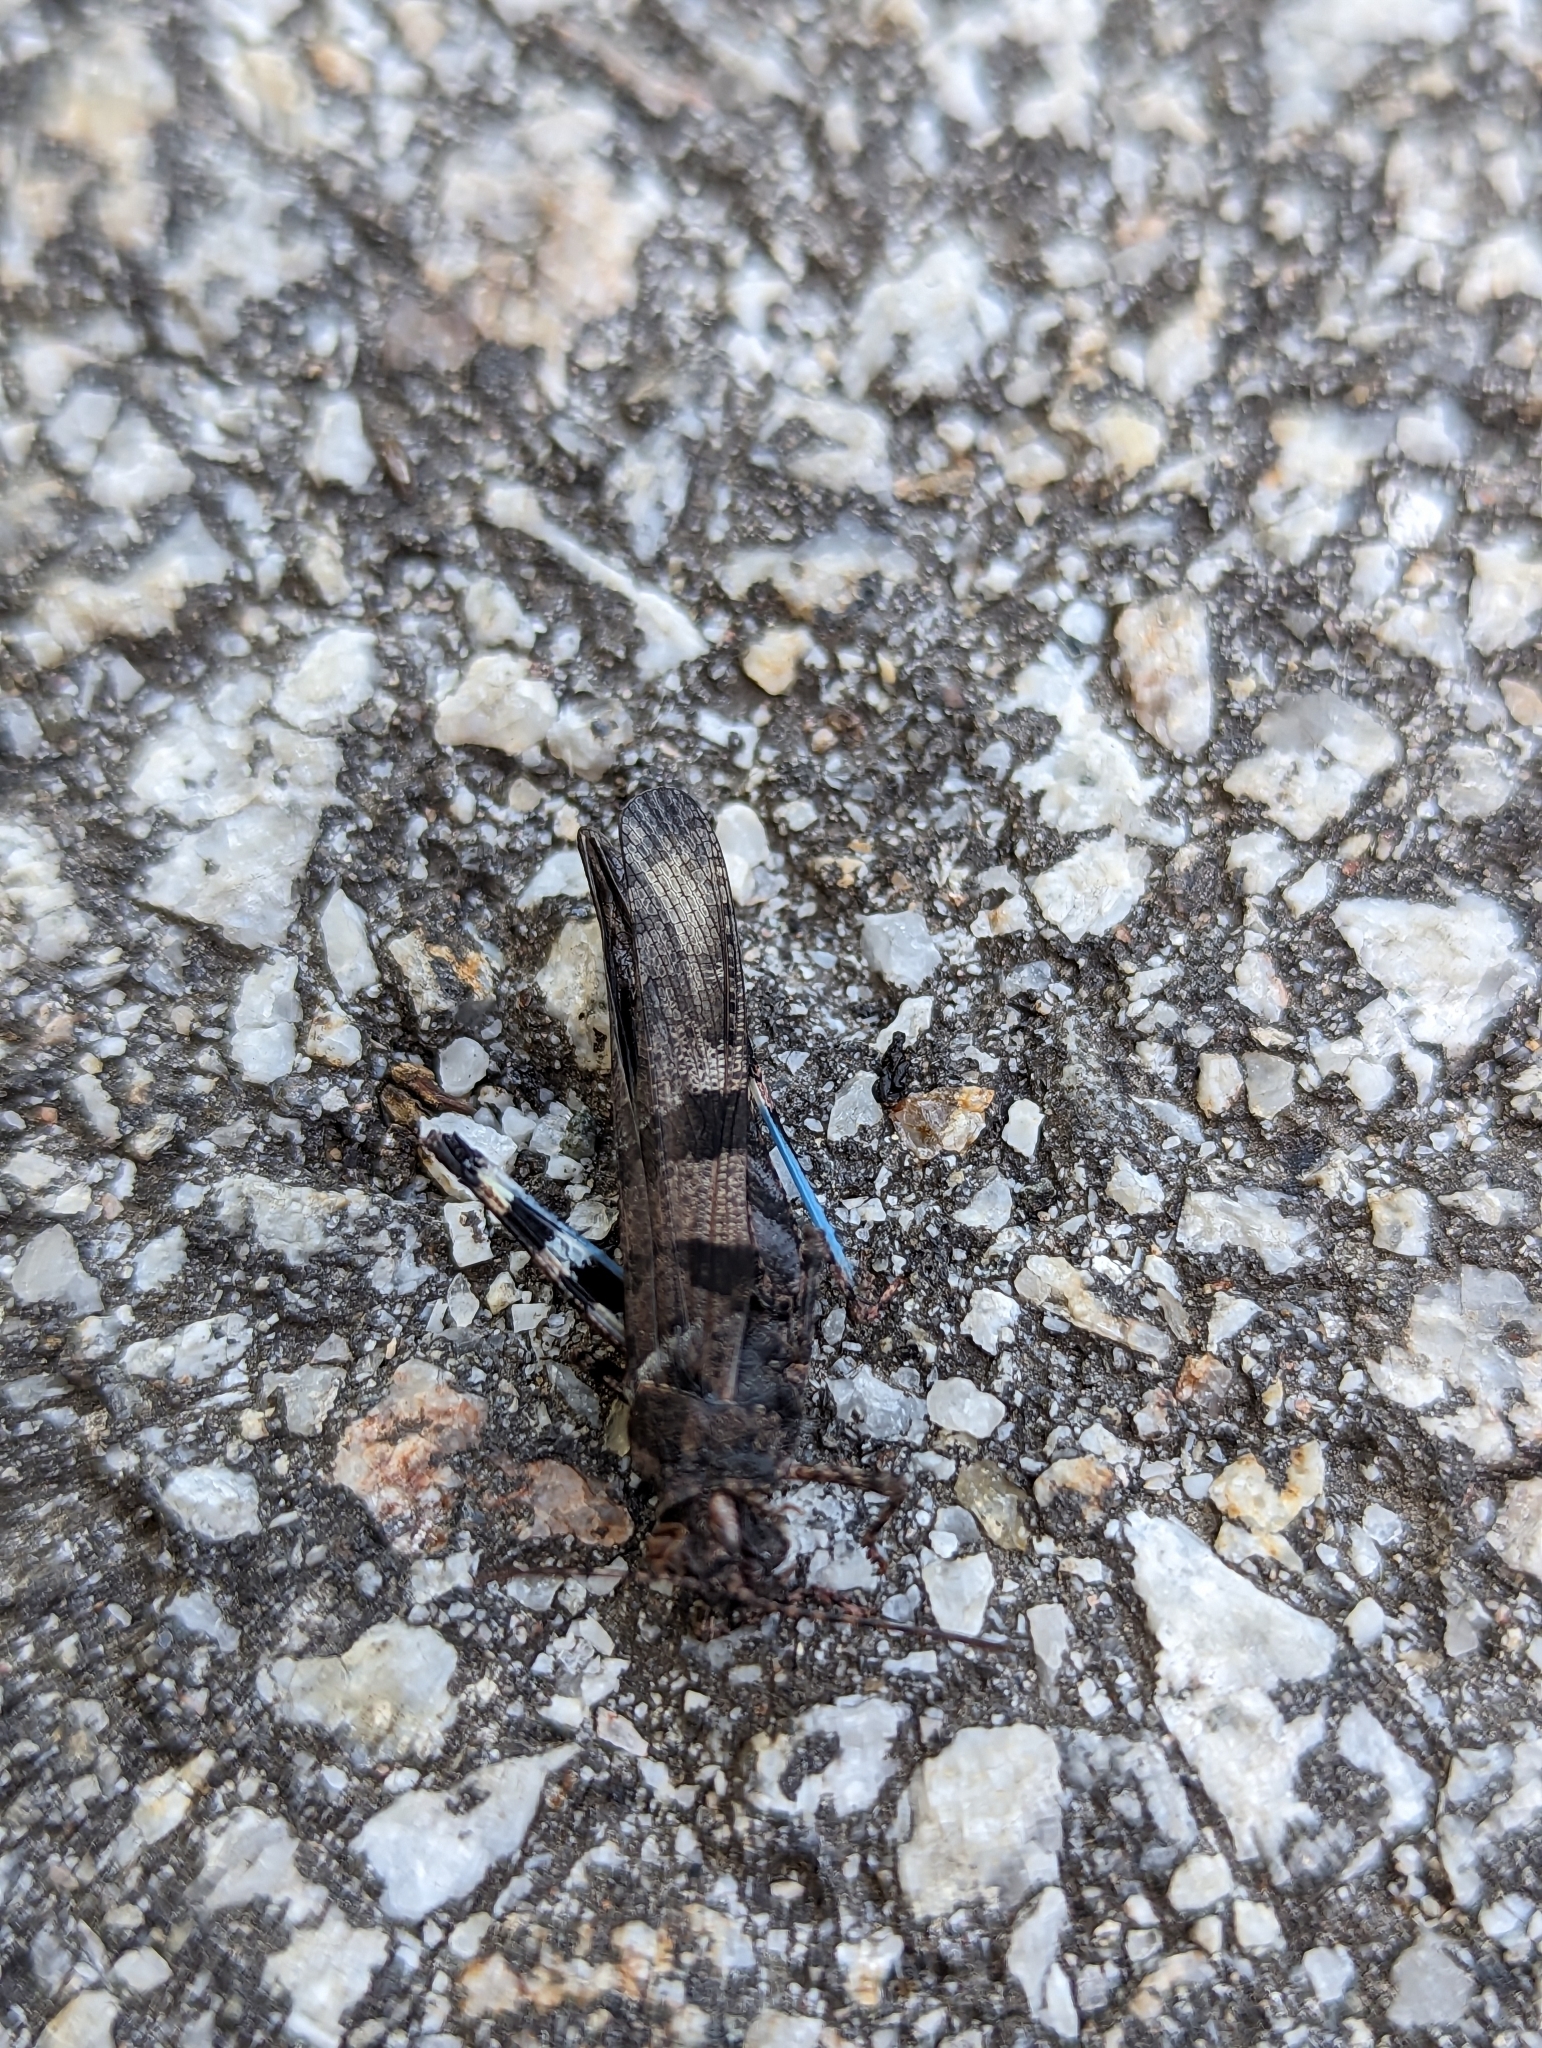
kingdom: Animalia
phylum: Arthropoda
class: Insecta
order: Orthoptera
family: Acrididae
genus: Trimerotropis
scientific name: Trimerotropis fontana
